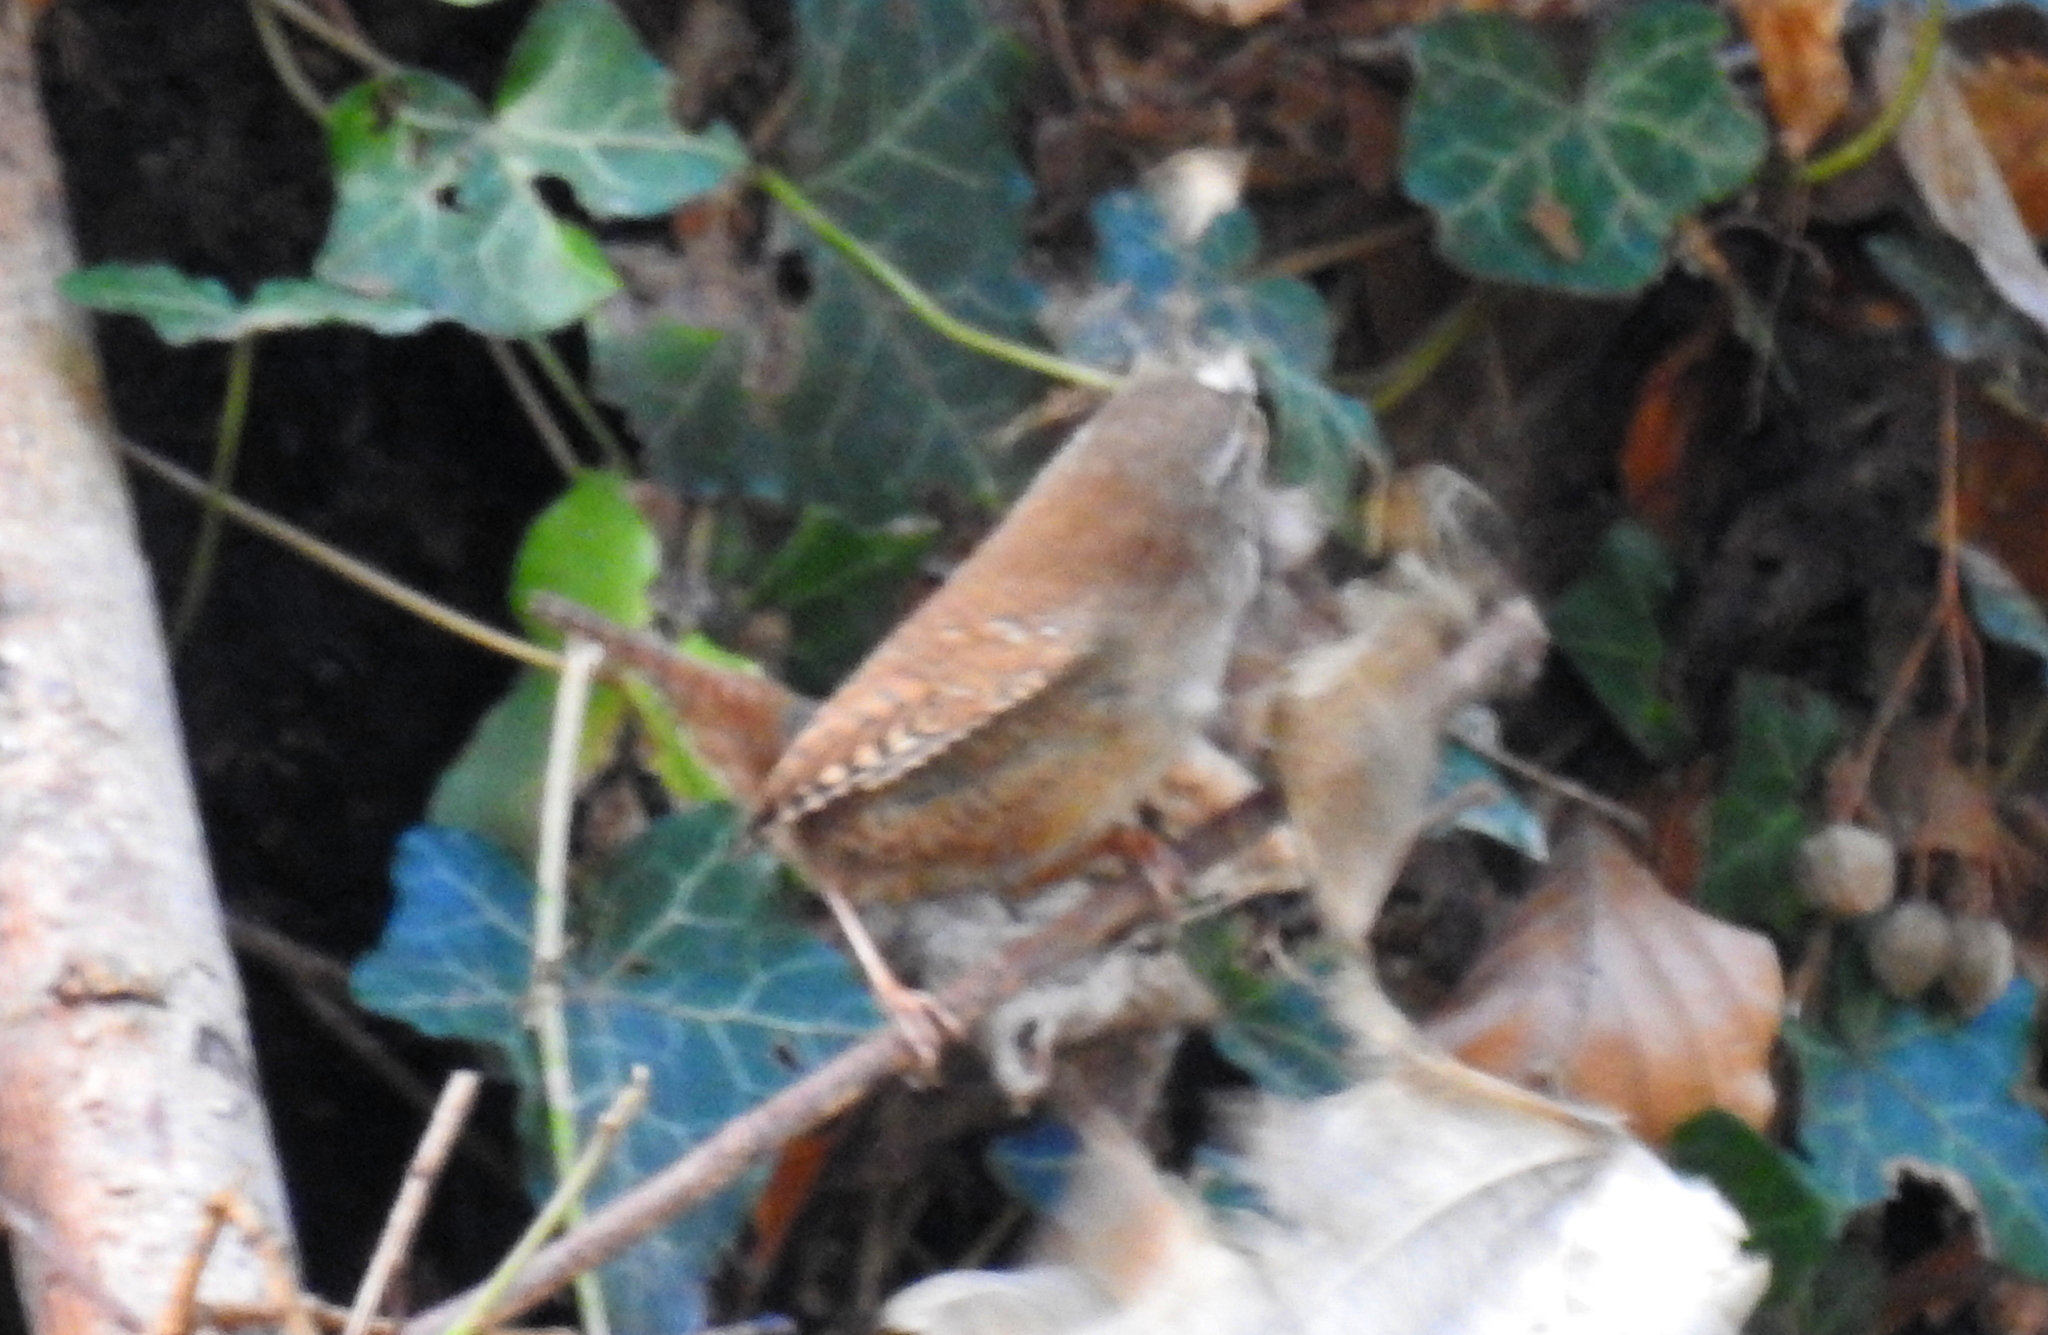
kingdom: Animalia
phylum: Chordata
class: Aves
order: Passeriformes
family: Troglodytidae
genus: Troglodytes
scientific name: Troglodytes troglodytes
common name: Eurasian wren
